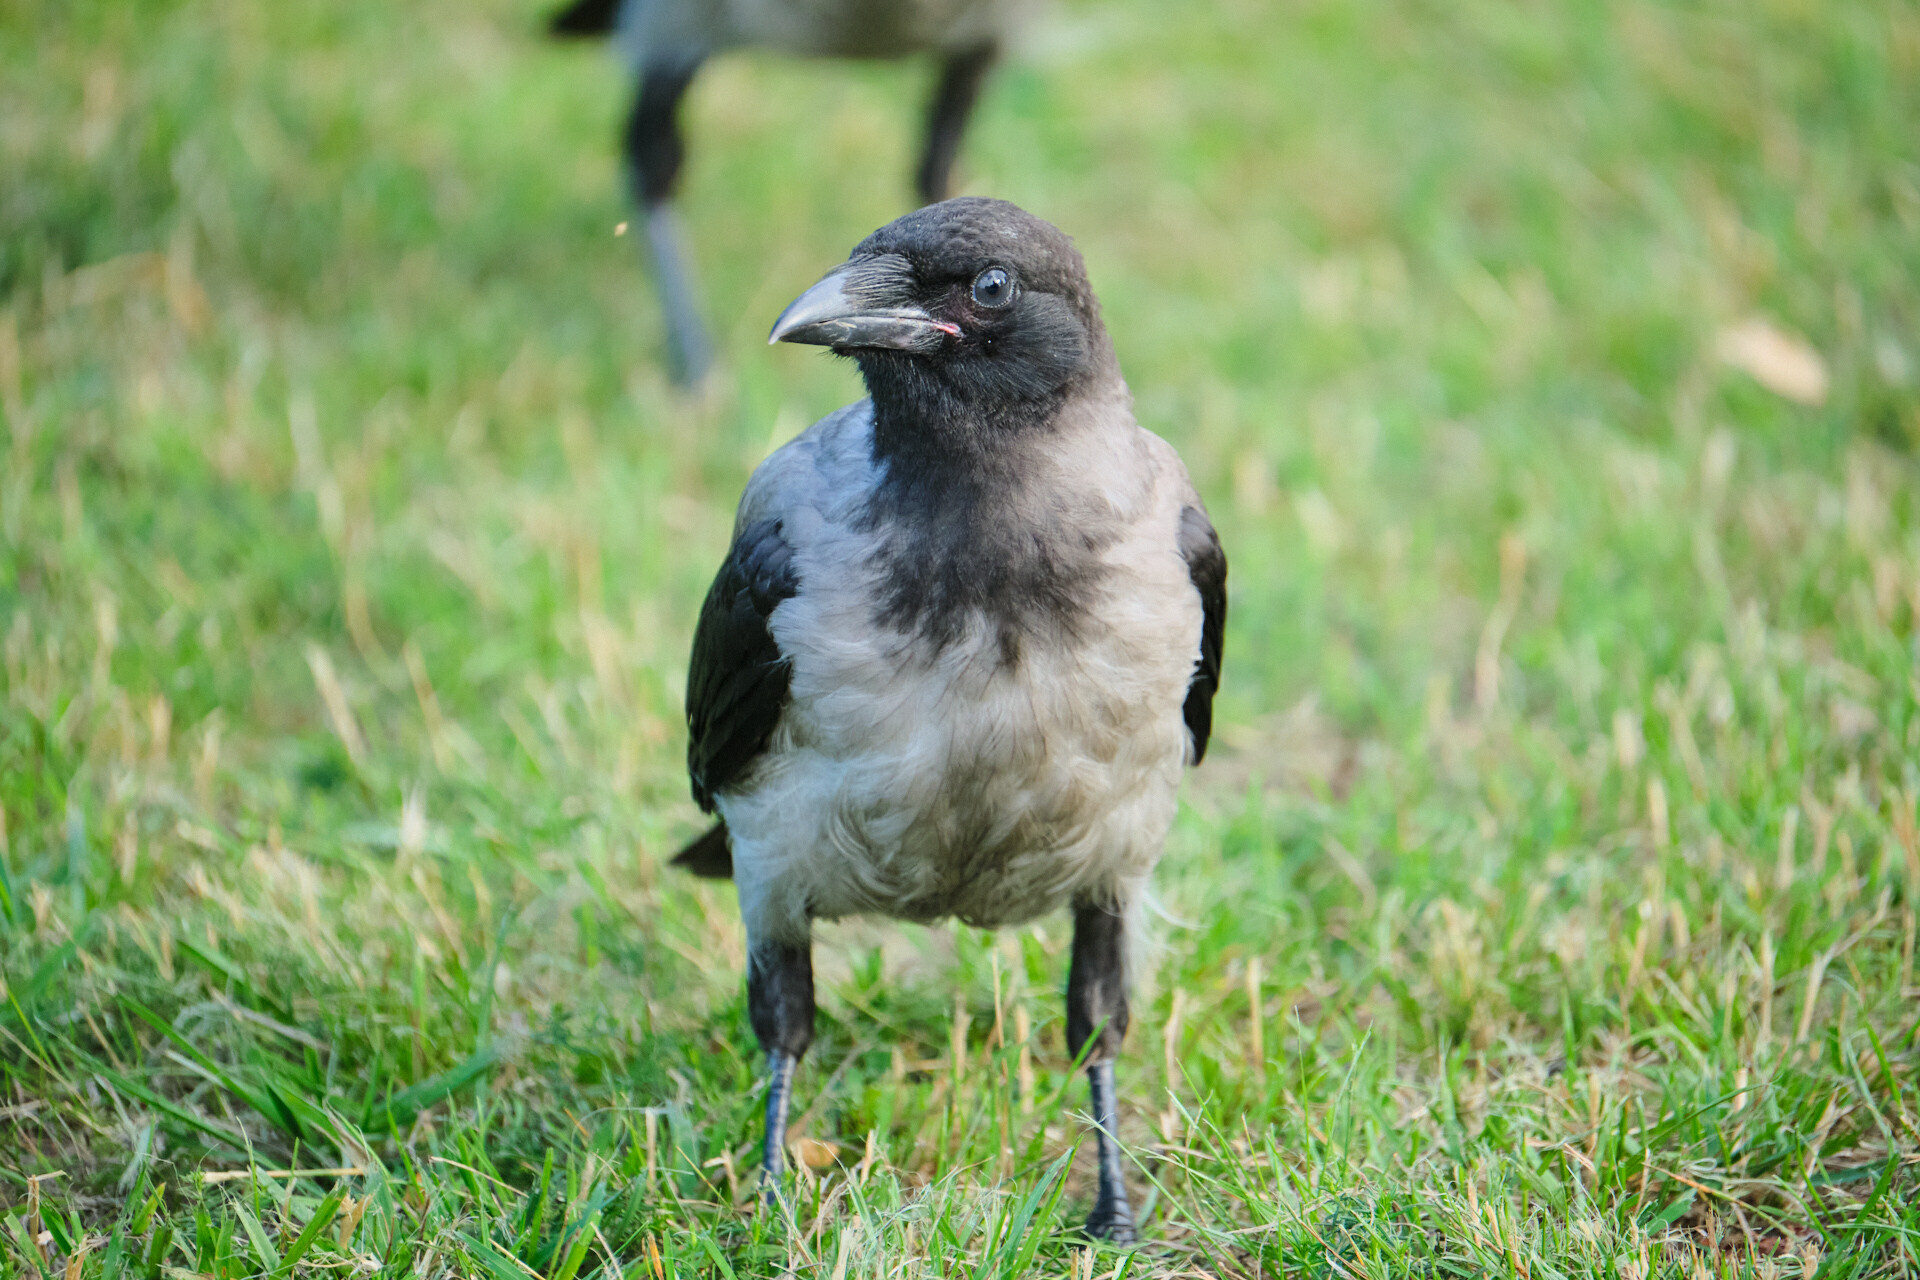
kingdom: Animalia
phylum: Chordata
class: Aves
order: Passeriformes
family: Corvidae
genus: Corvus
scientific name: Corvus cornix
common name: Hooded crow
